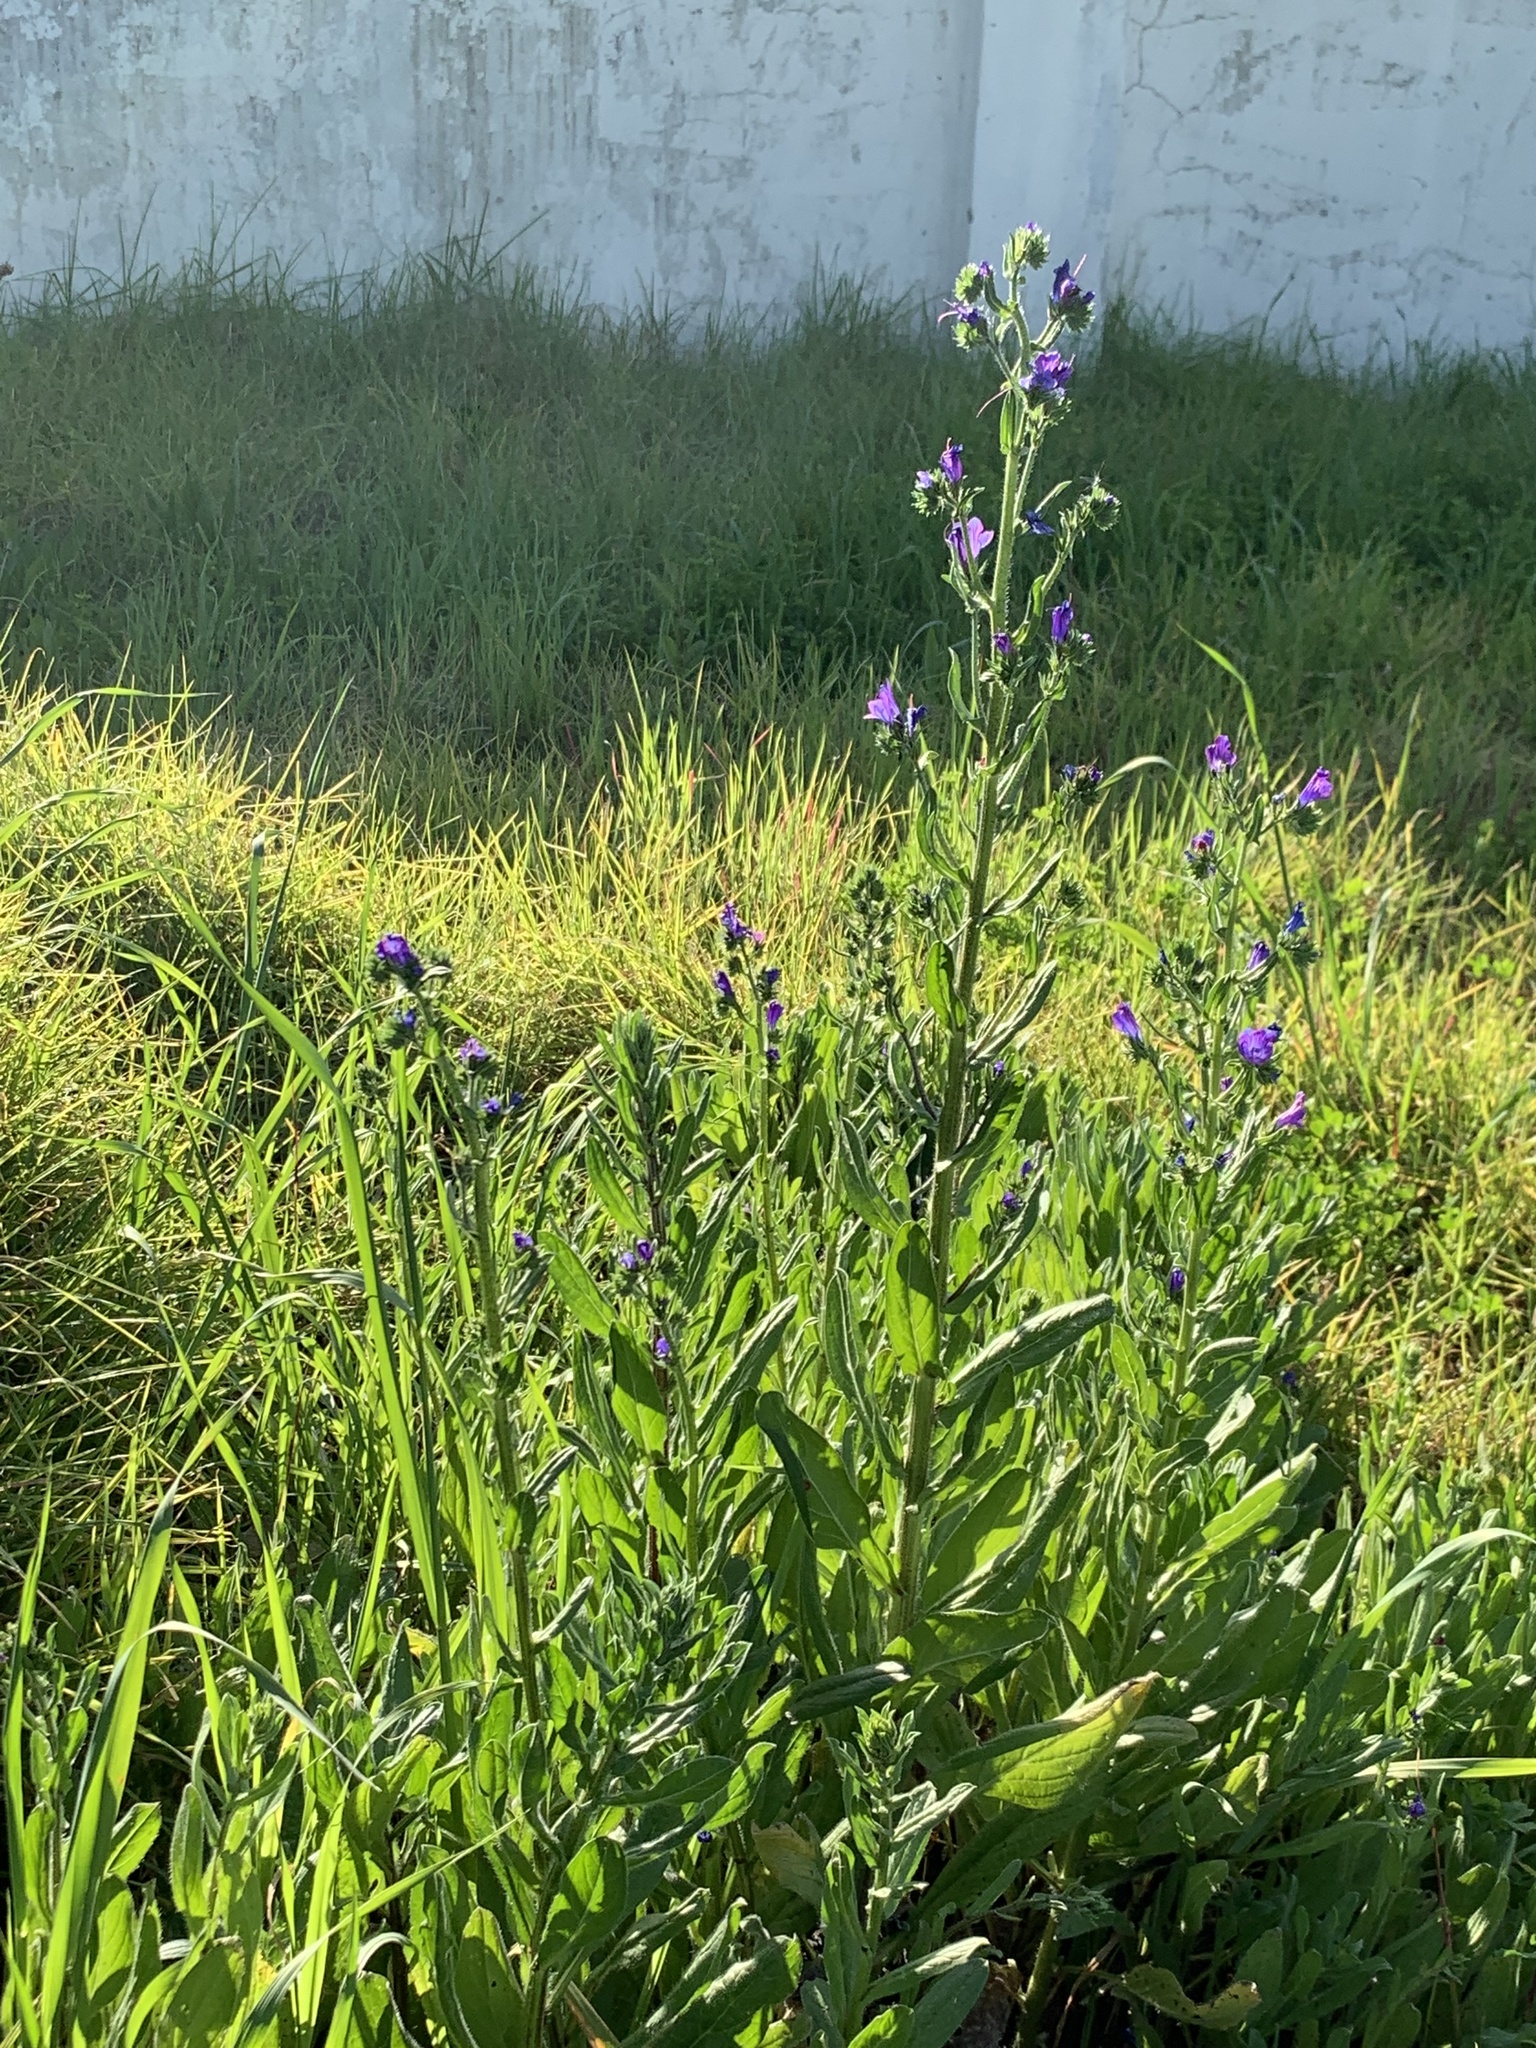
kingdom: Plantae
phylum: Tracheophyta
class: Magnoliopsida
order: Boraginales
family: Boraginaceae
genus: Echium
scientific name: Echium plantagineum
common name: Purple viper's-bugloss
